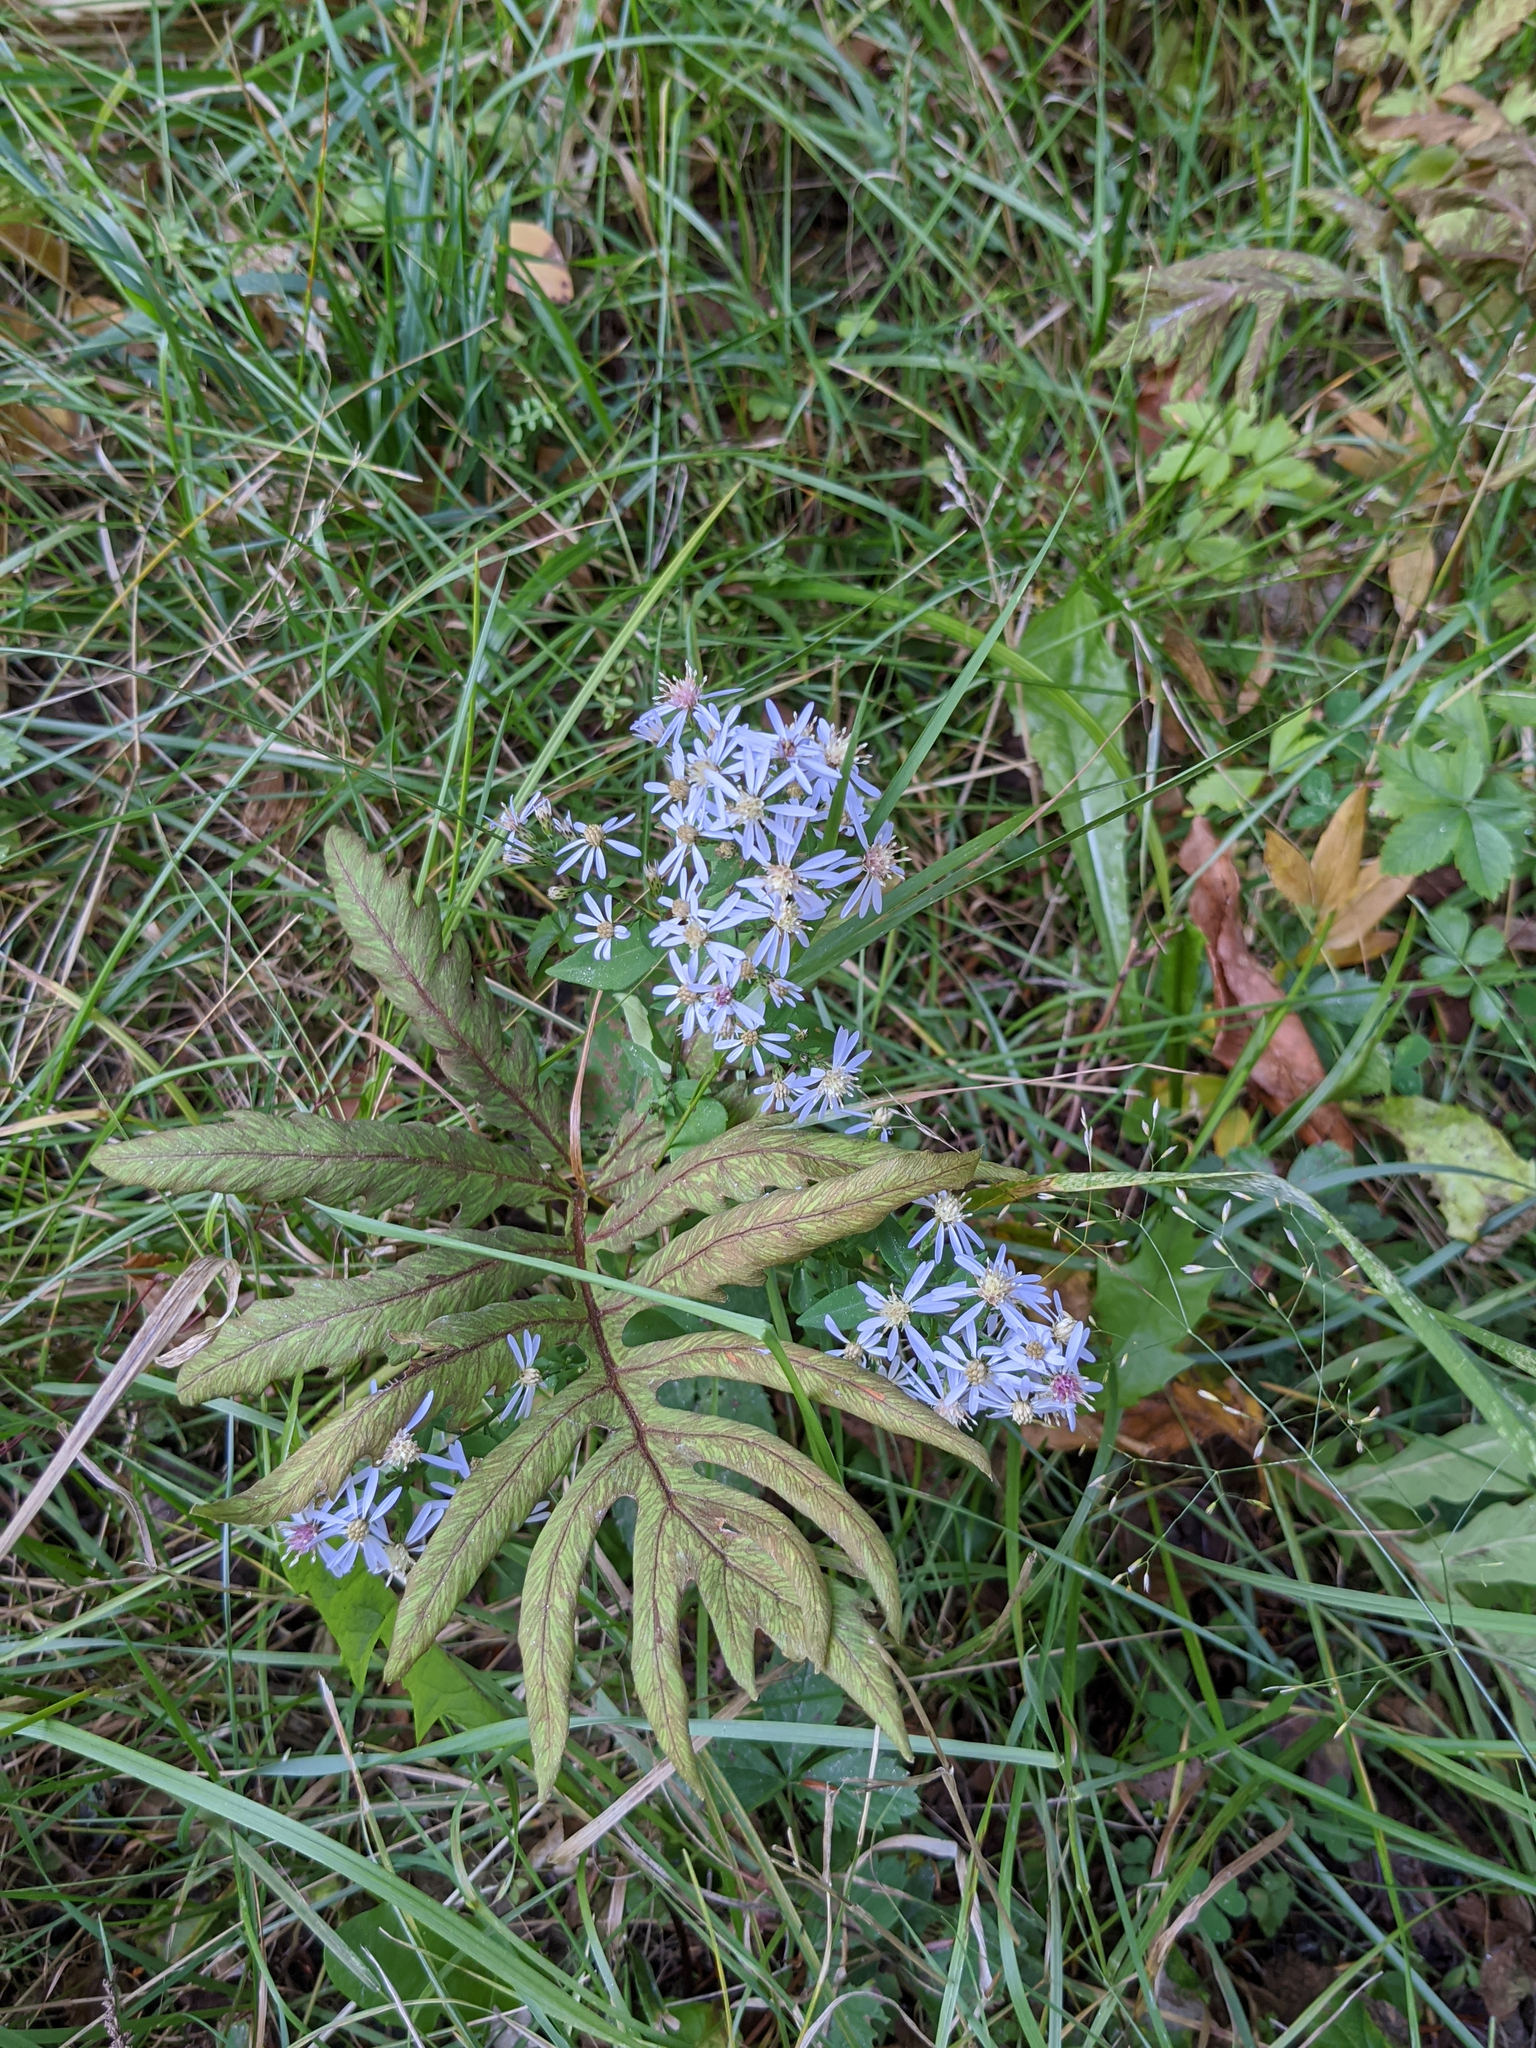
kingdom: Plantae
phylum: Tracheophyta
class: Polypodiopsida
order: Polypodiales
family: Onocleaceae
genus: Onoclea
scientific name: Onoclea sensibilis
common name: Sensitive fern
